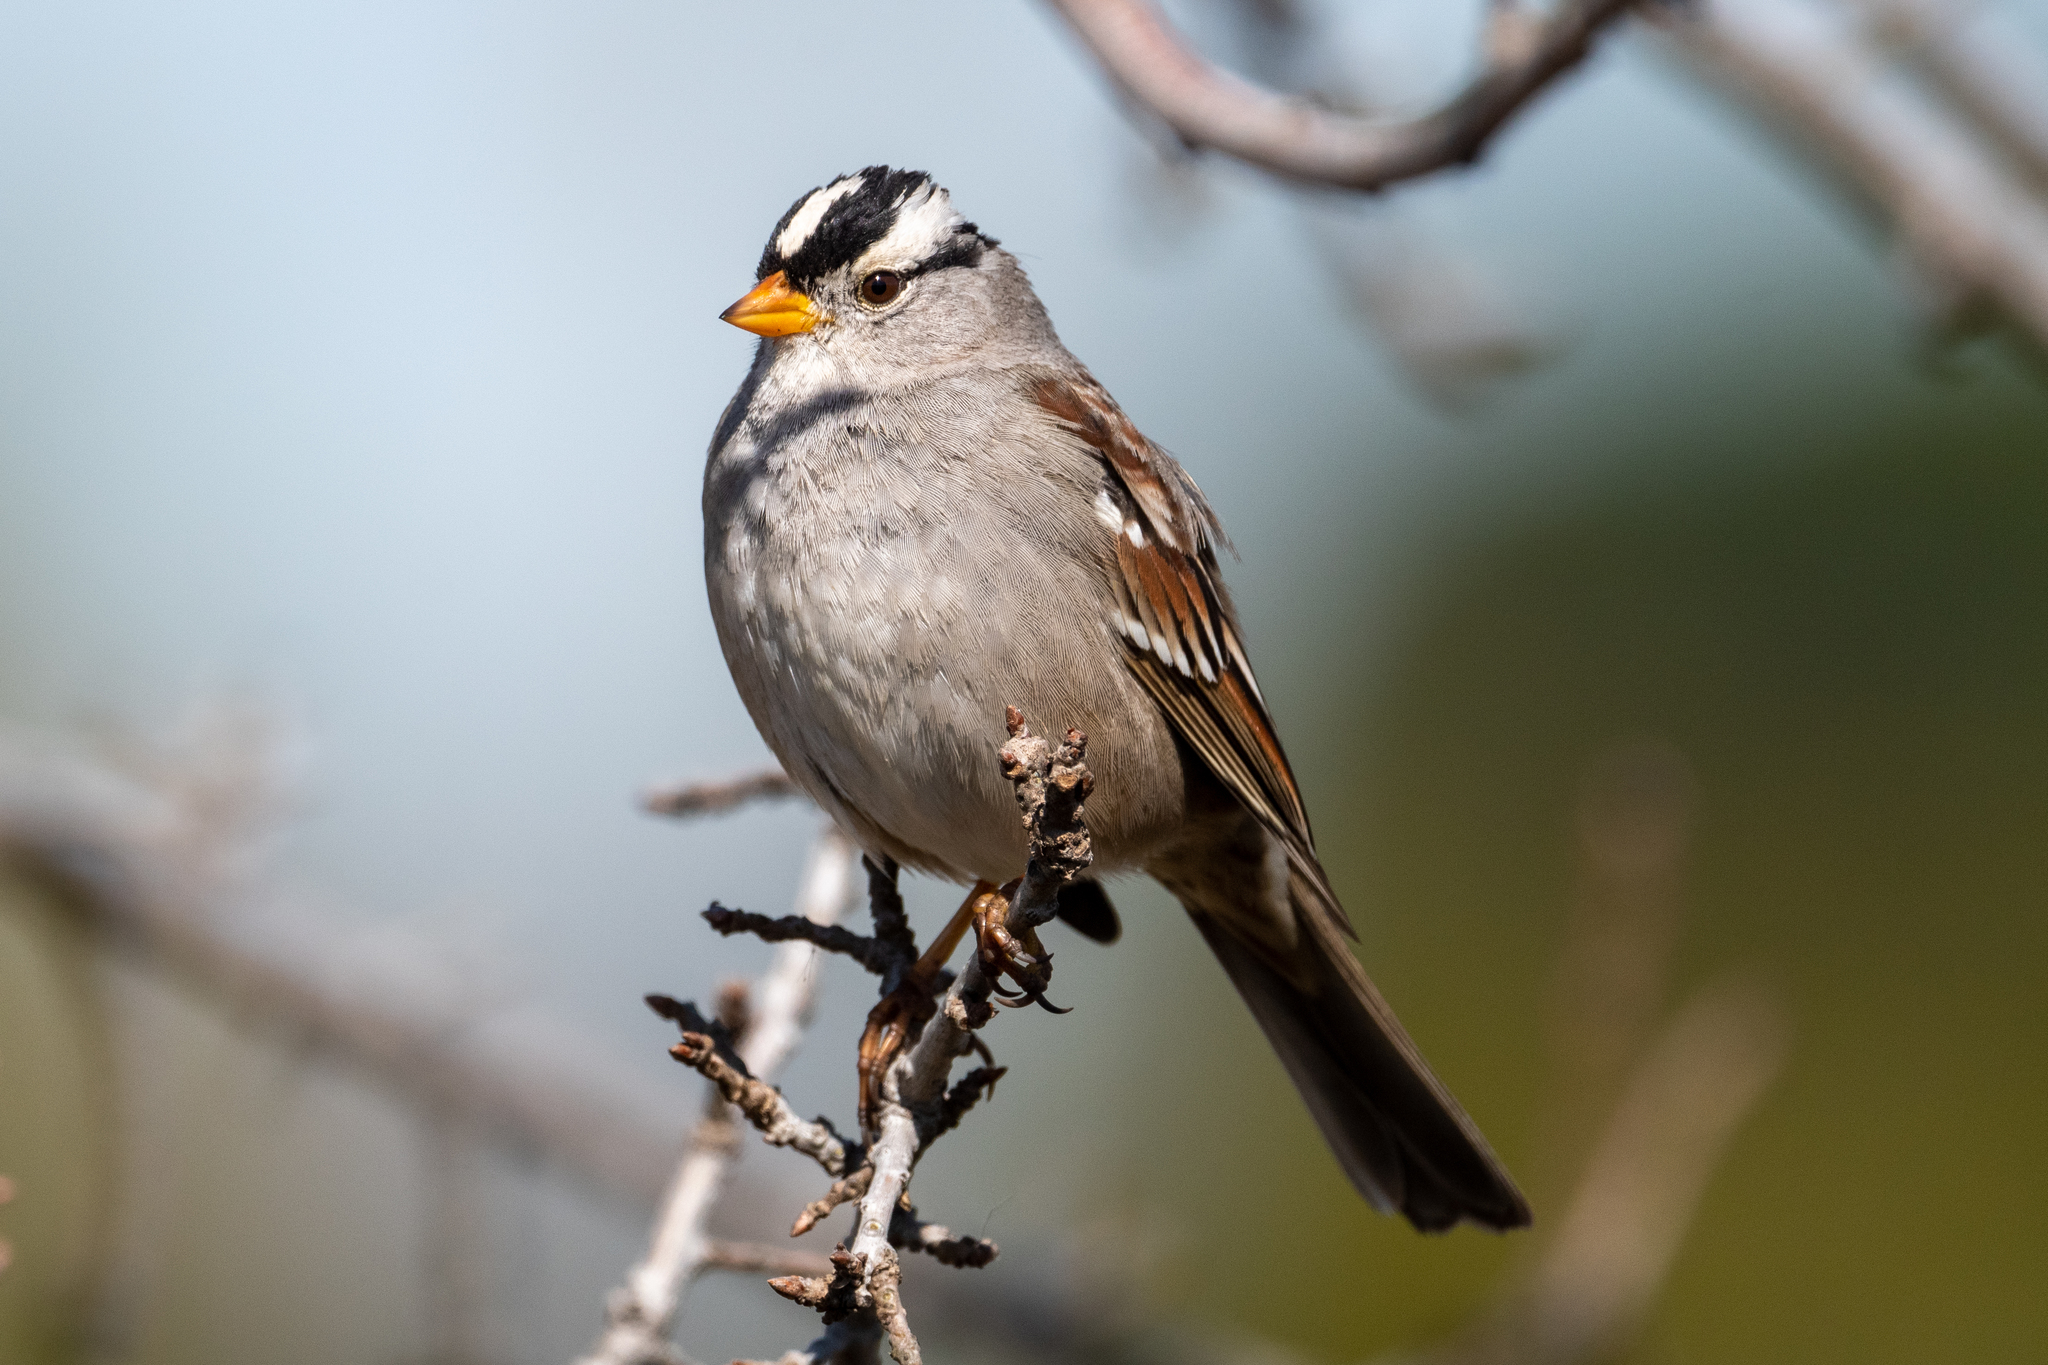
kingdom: Animalia
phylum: Chordata
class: Aves
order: Passeriformes
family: Passerellidae
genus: Zonotrichia
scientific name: Zonotrichia leucophrys
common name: White-crowned sparrow
